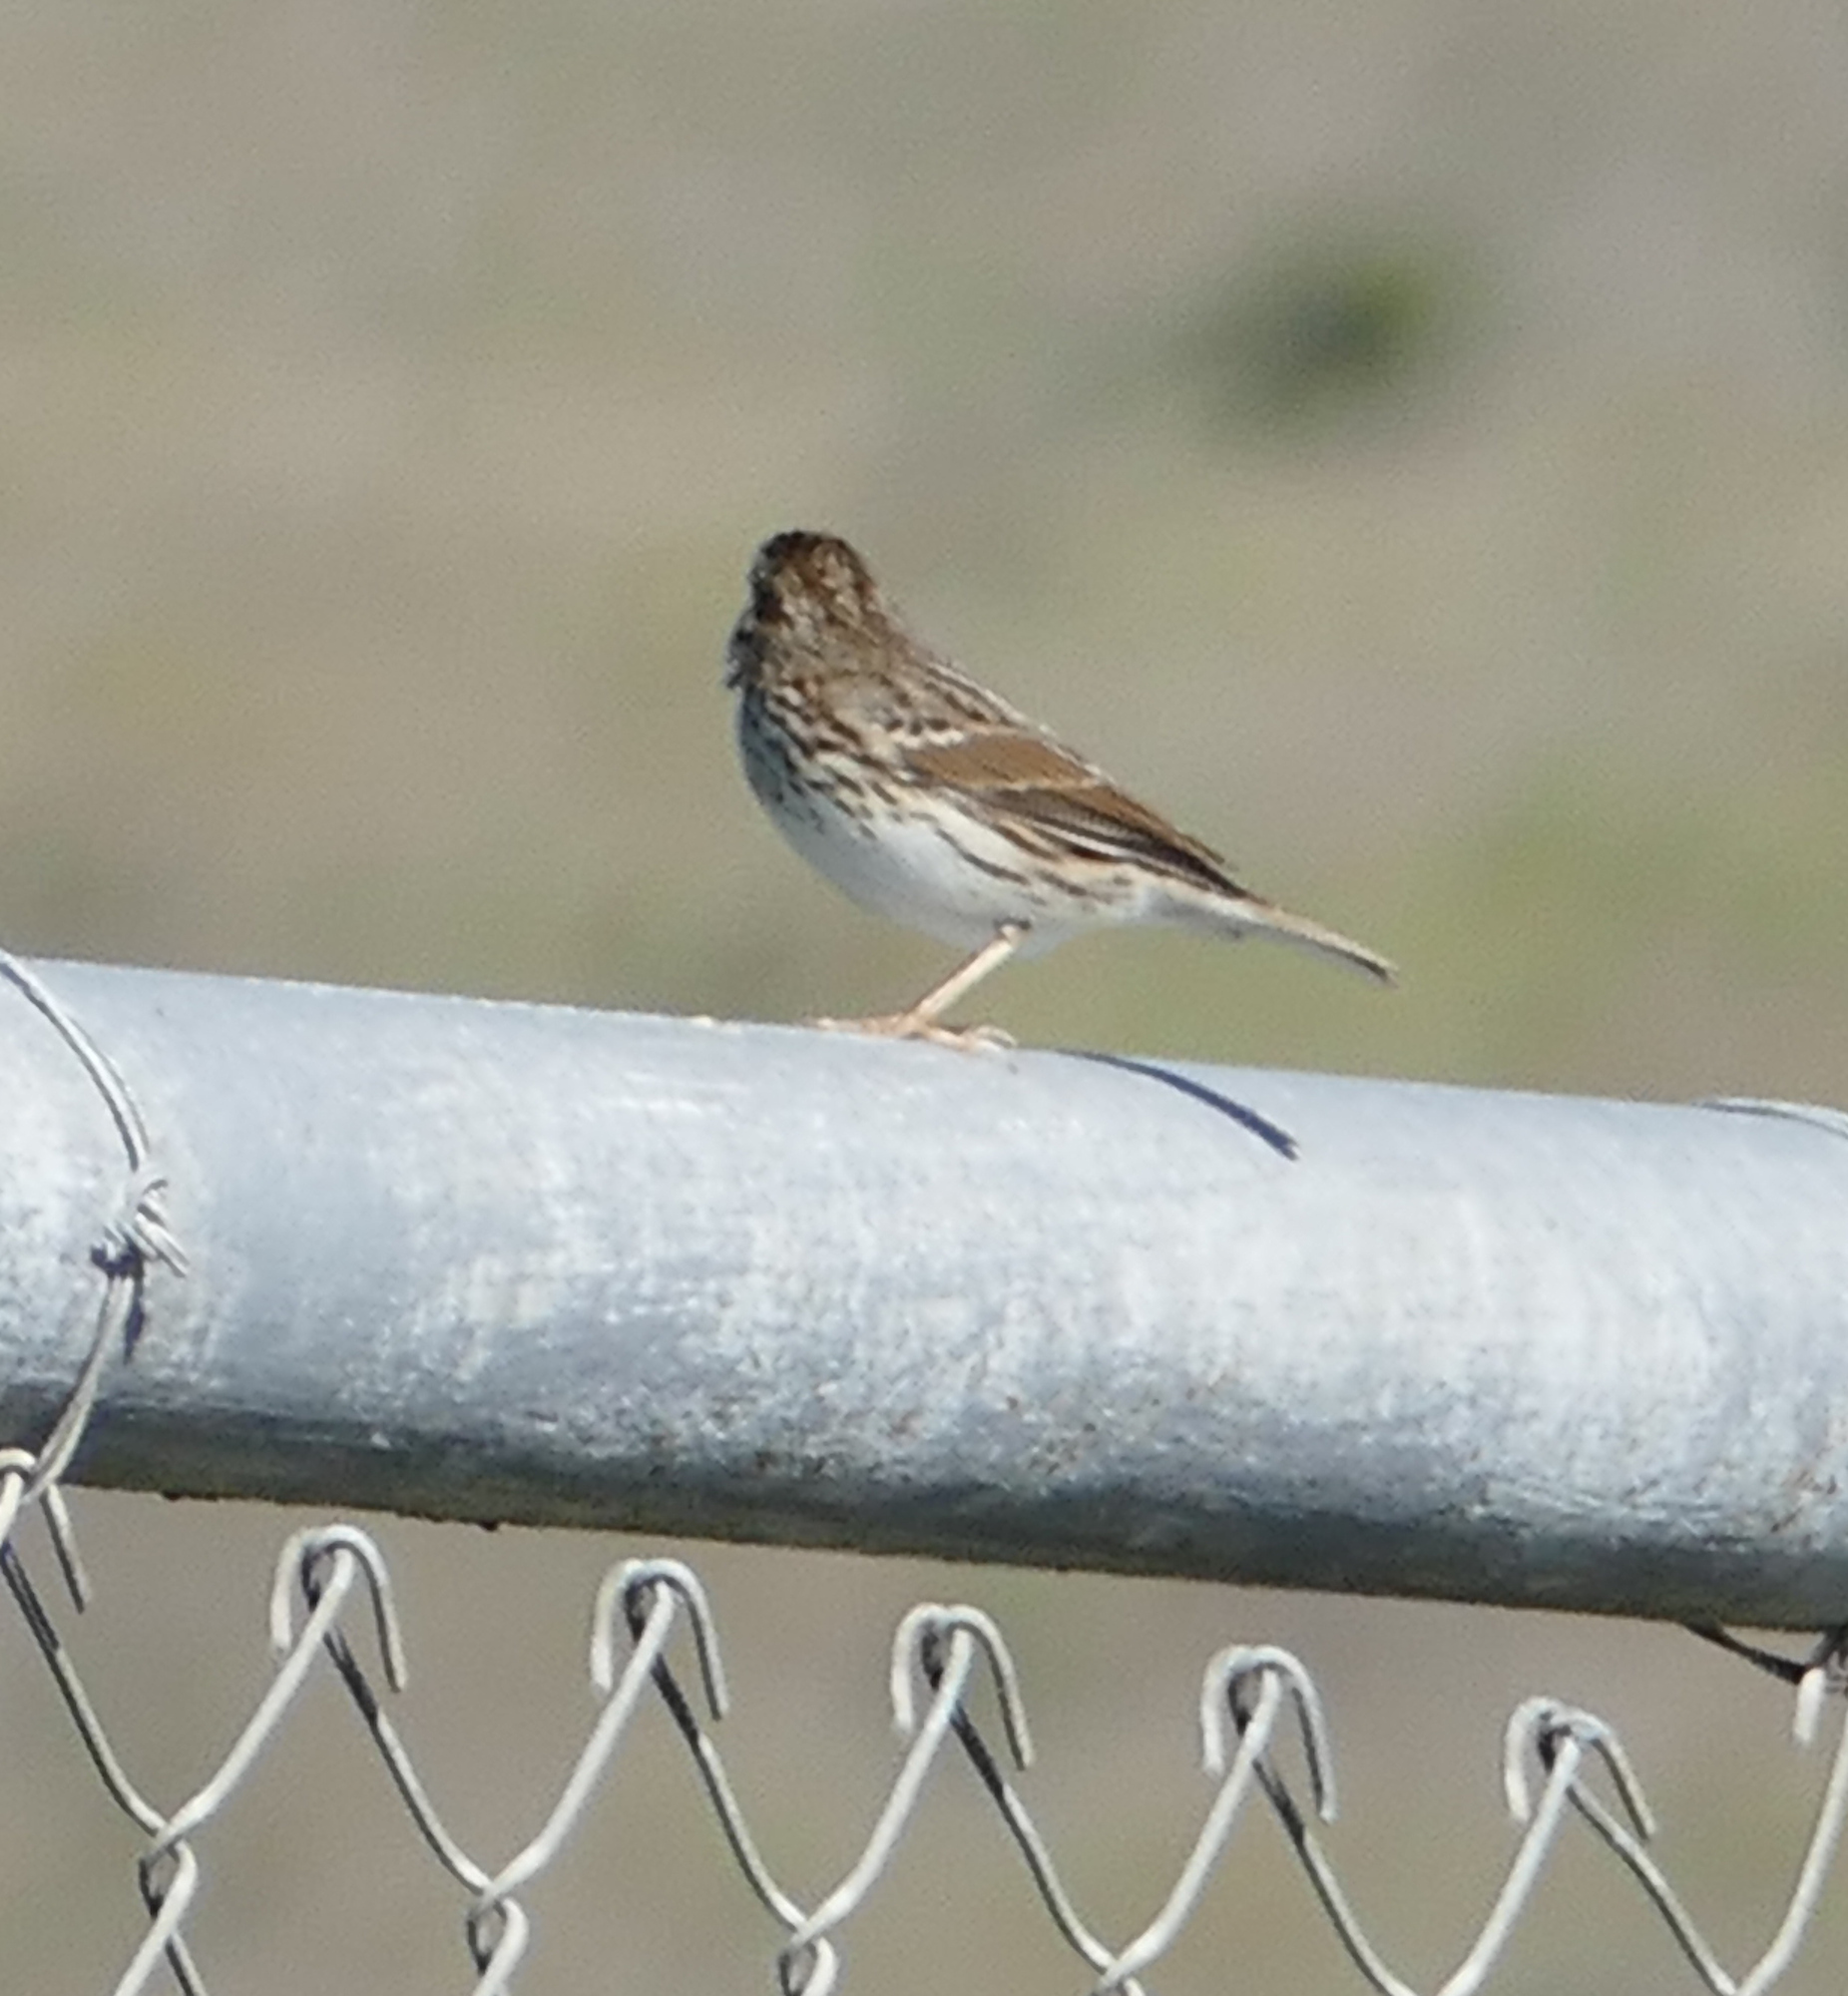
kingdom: Animalia
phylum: Chordata
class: Aves
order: Passeriformes
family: Passerellidae
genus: Passerculus
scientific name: Passerculus sandwichensis
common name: Savannah sparrow
